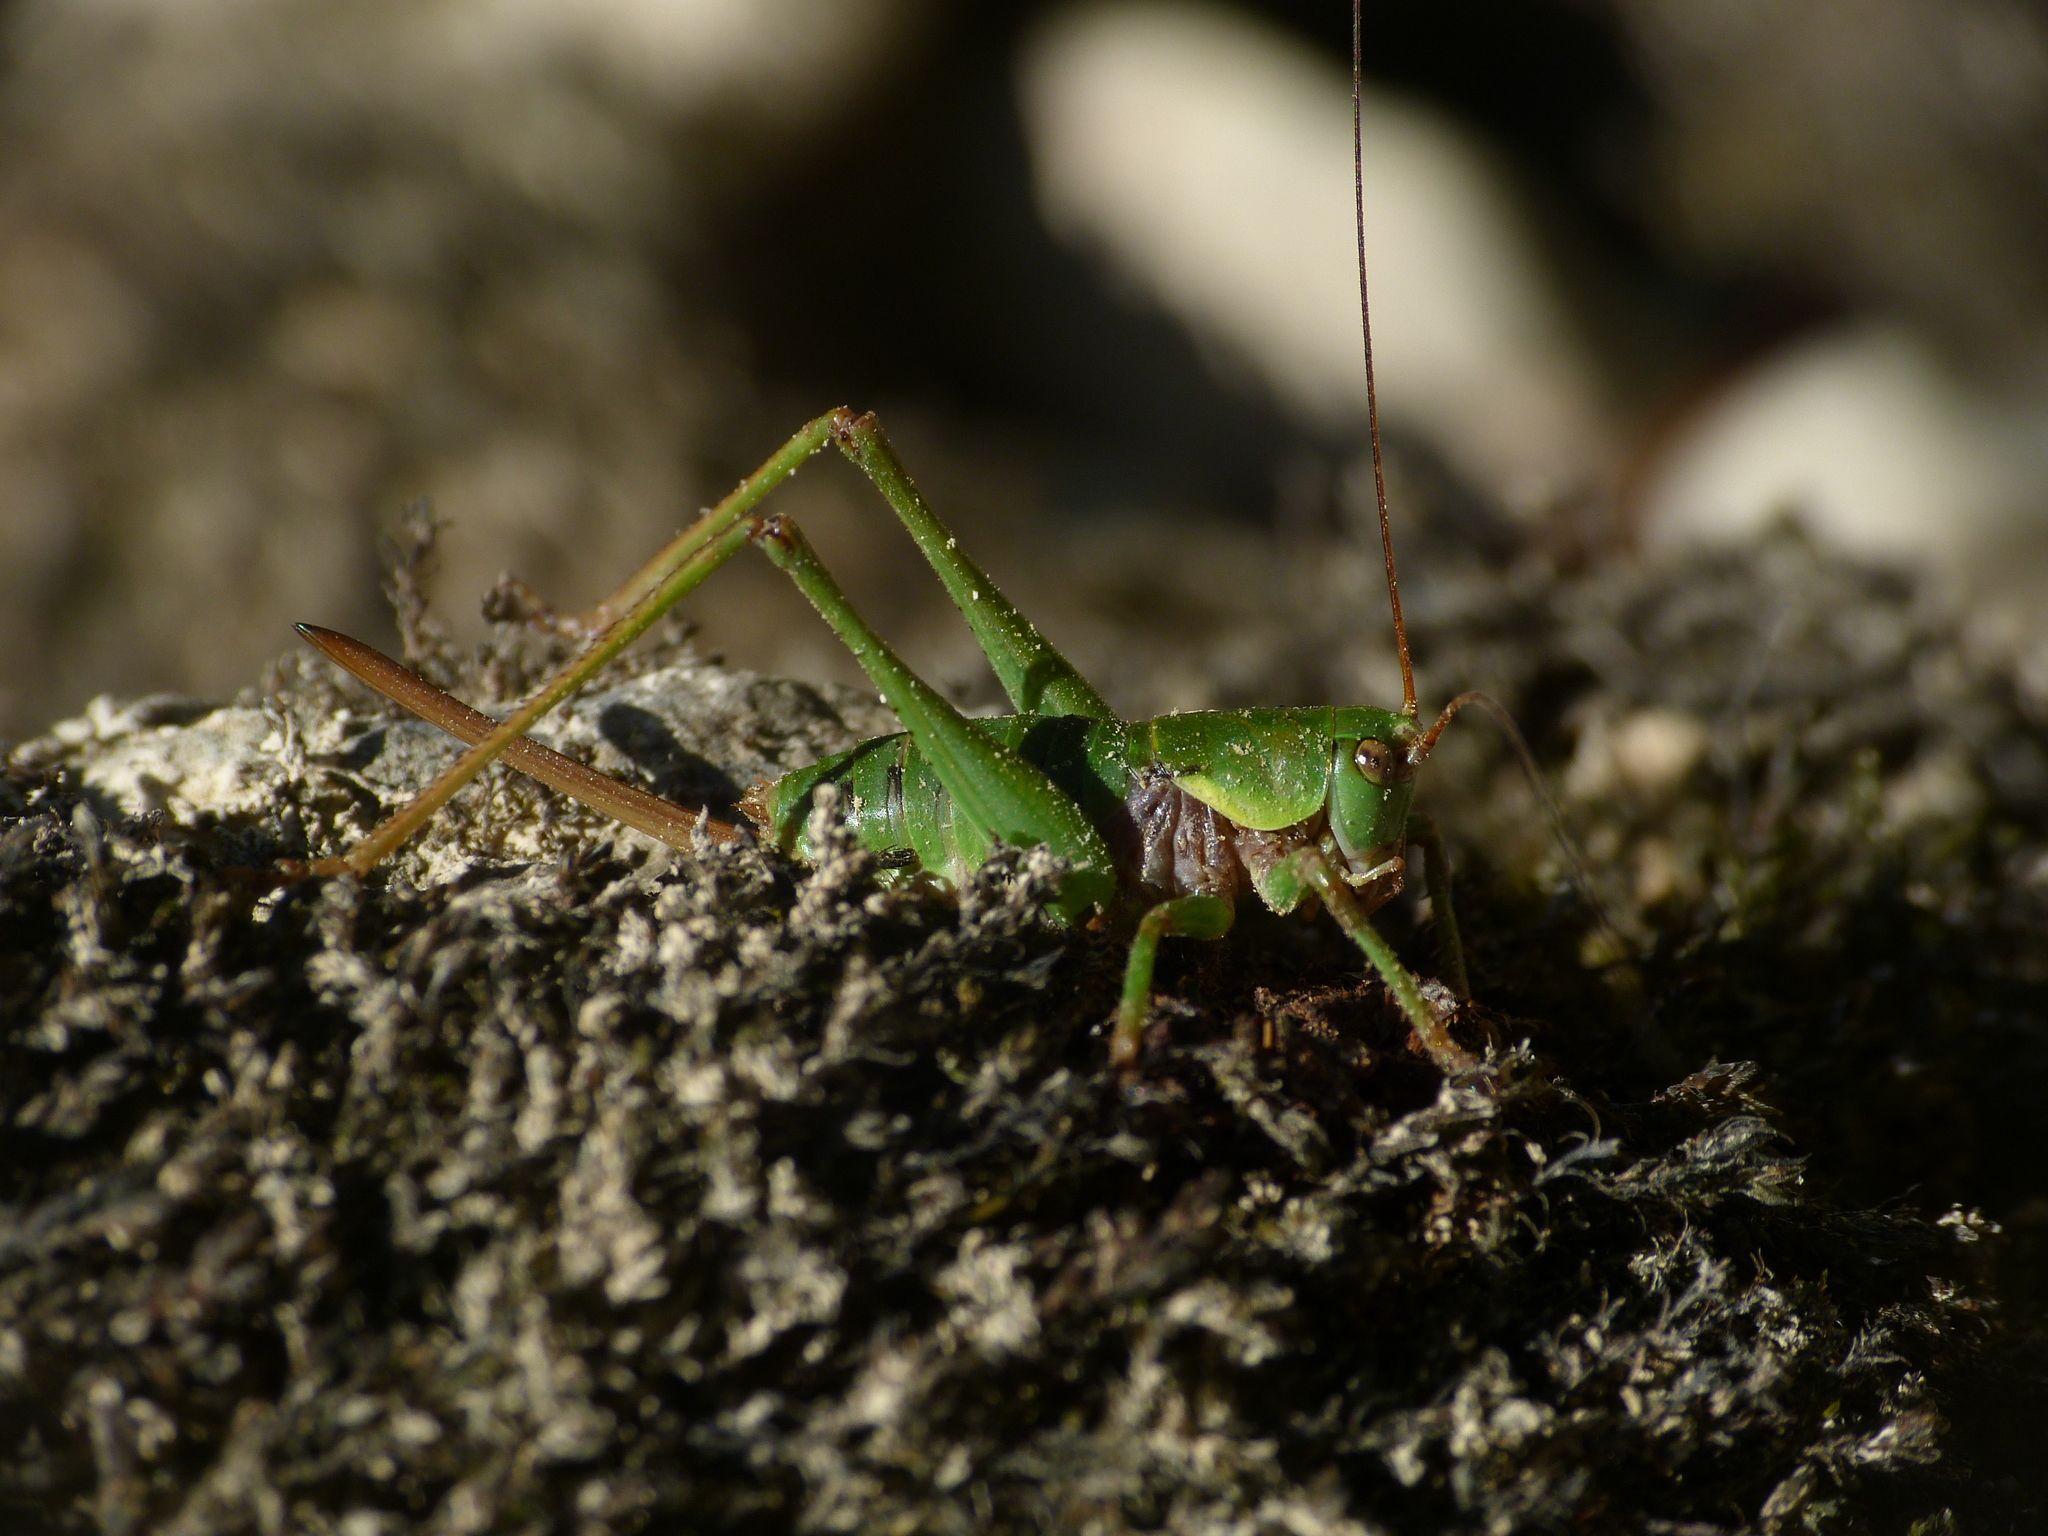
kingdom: Animalia
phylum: Arthropoda
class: Insecta
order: Orthoptera
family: Tettigoniidae
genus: Antaxius
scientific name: Antaxius sorrezensis
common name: French mountain bush-cricket
